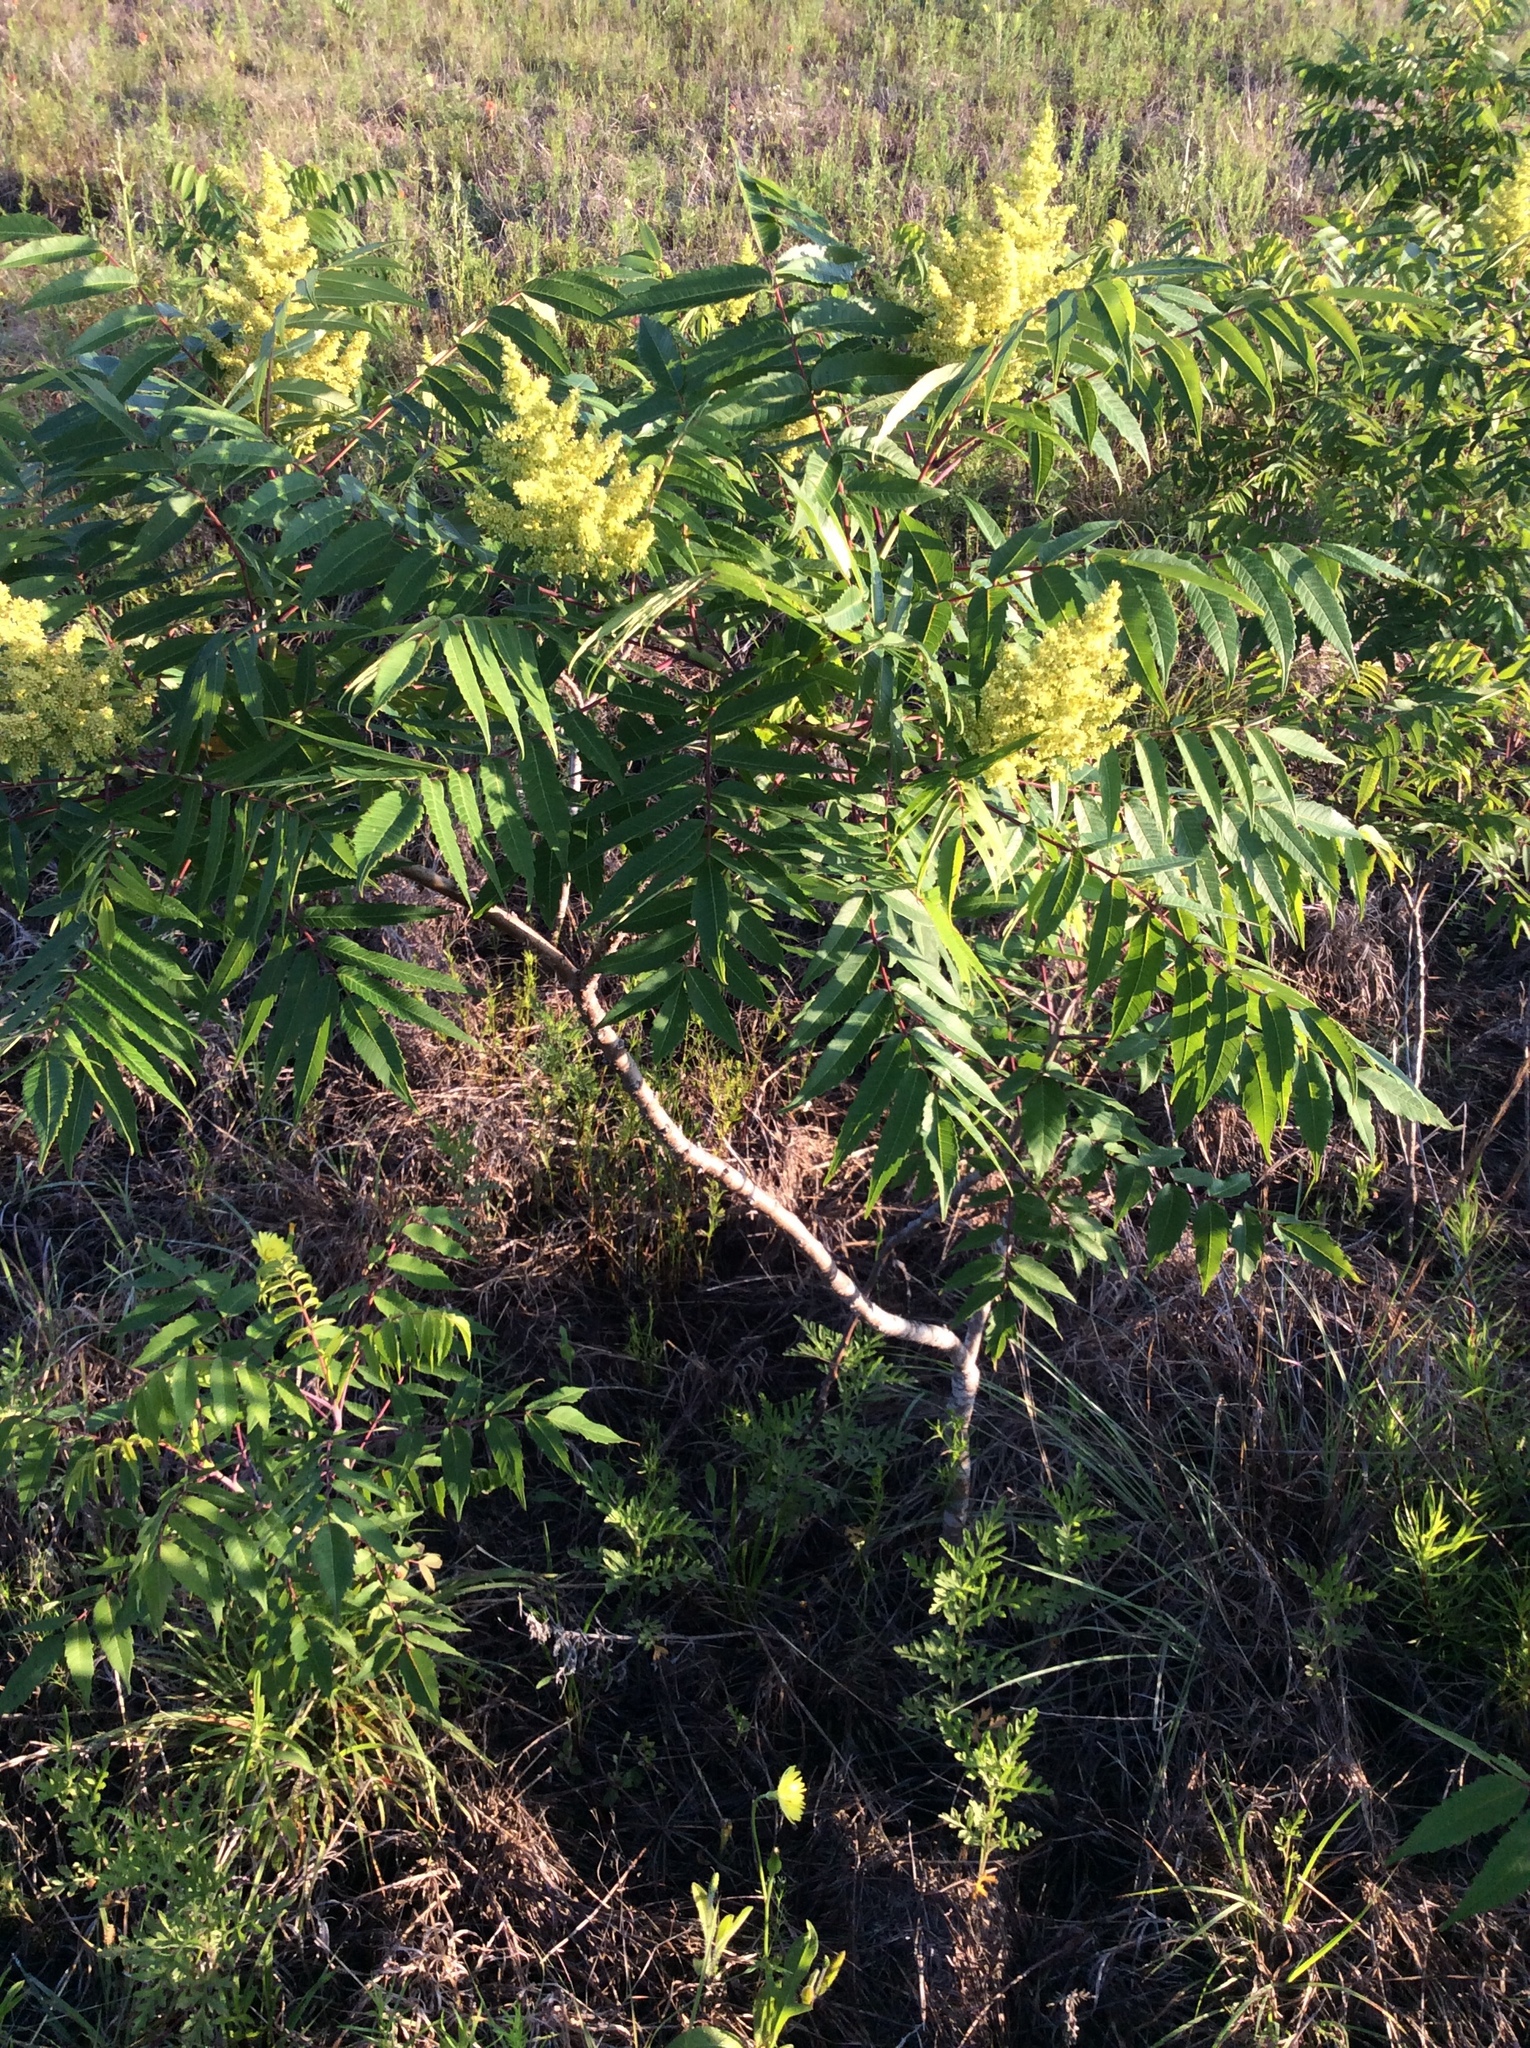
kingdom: Plantae
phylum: Tracheophyta
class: Magnoliopsida
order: Sapindales
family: Anacardiaceae
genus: Rhus
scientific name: Rhus glabra
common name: Scarlet sumac
